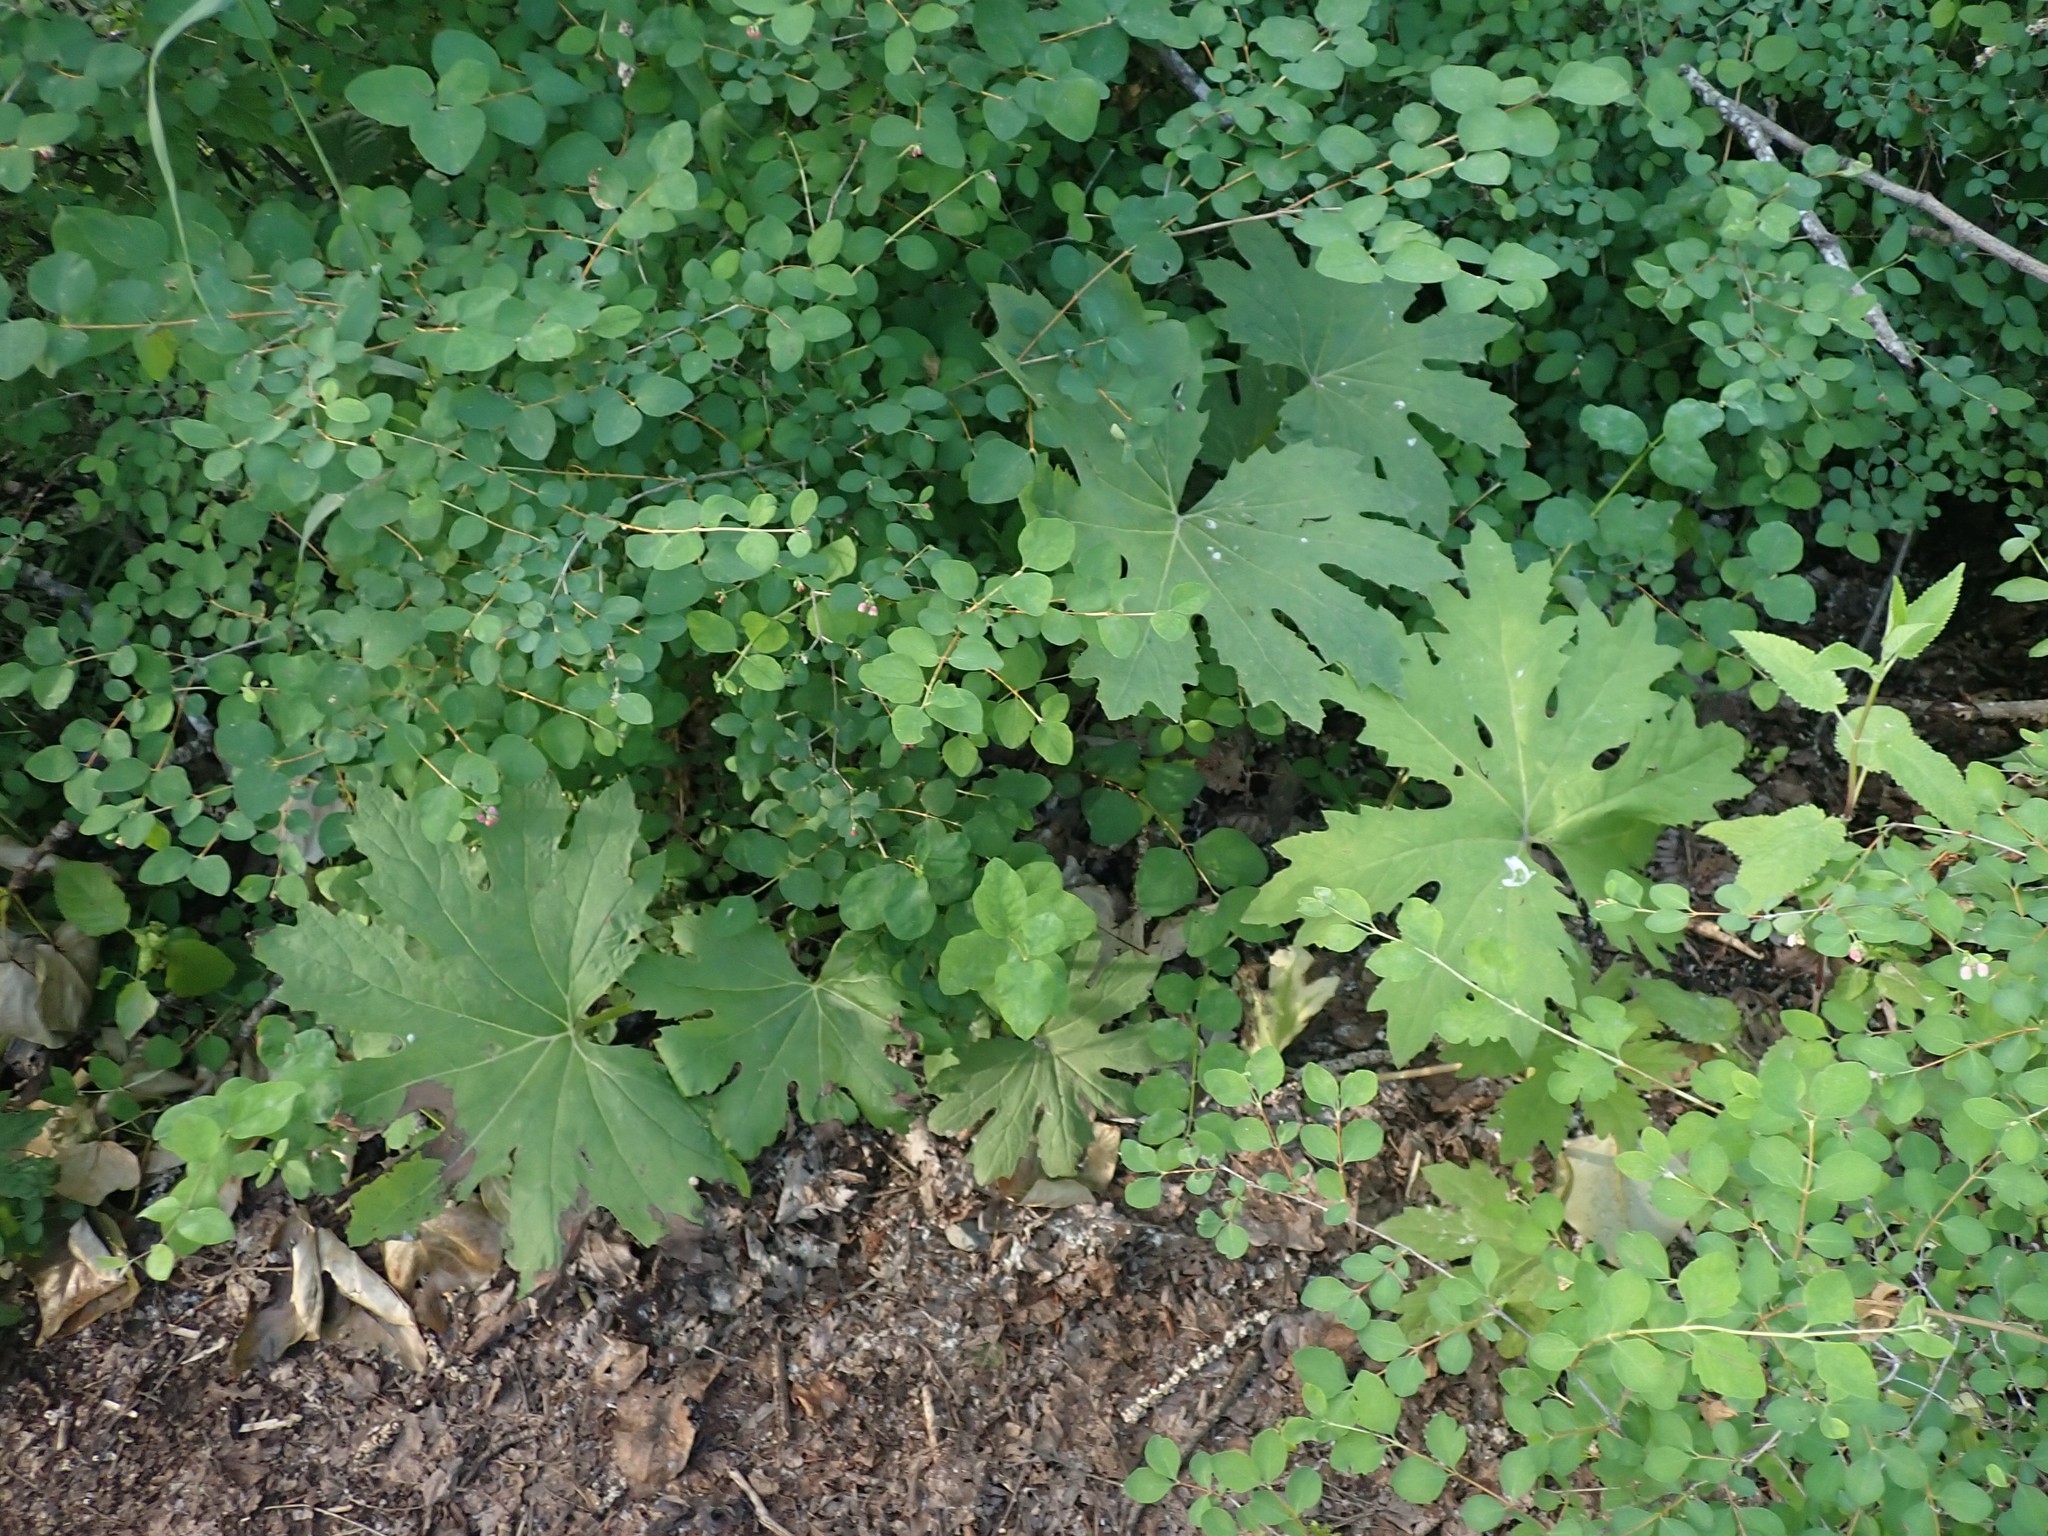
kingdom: Plantae
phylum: Tracheophyta
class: Magnoliopsida
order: Asterales
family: Asteraceae
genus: Petasites
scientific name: Petasites frigidus
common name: Arctic butterbur
